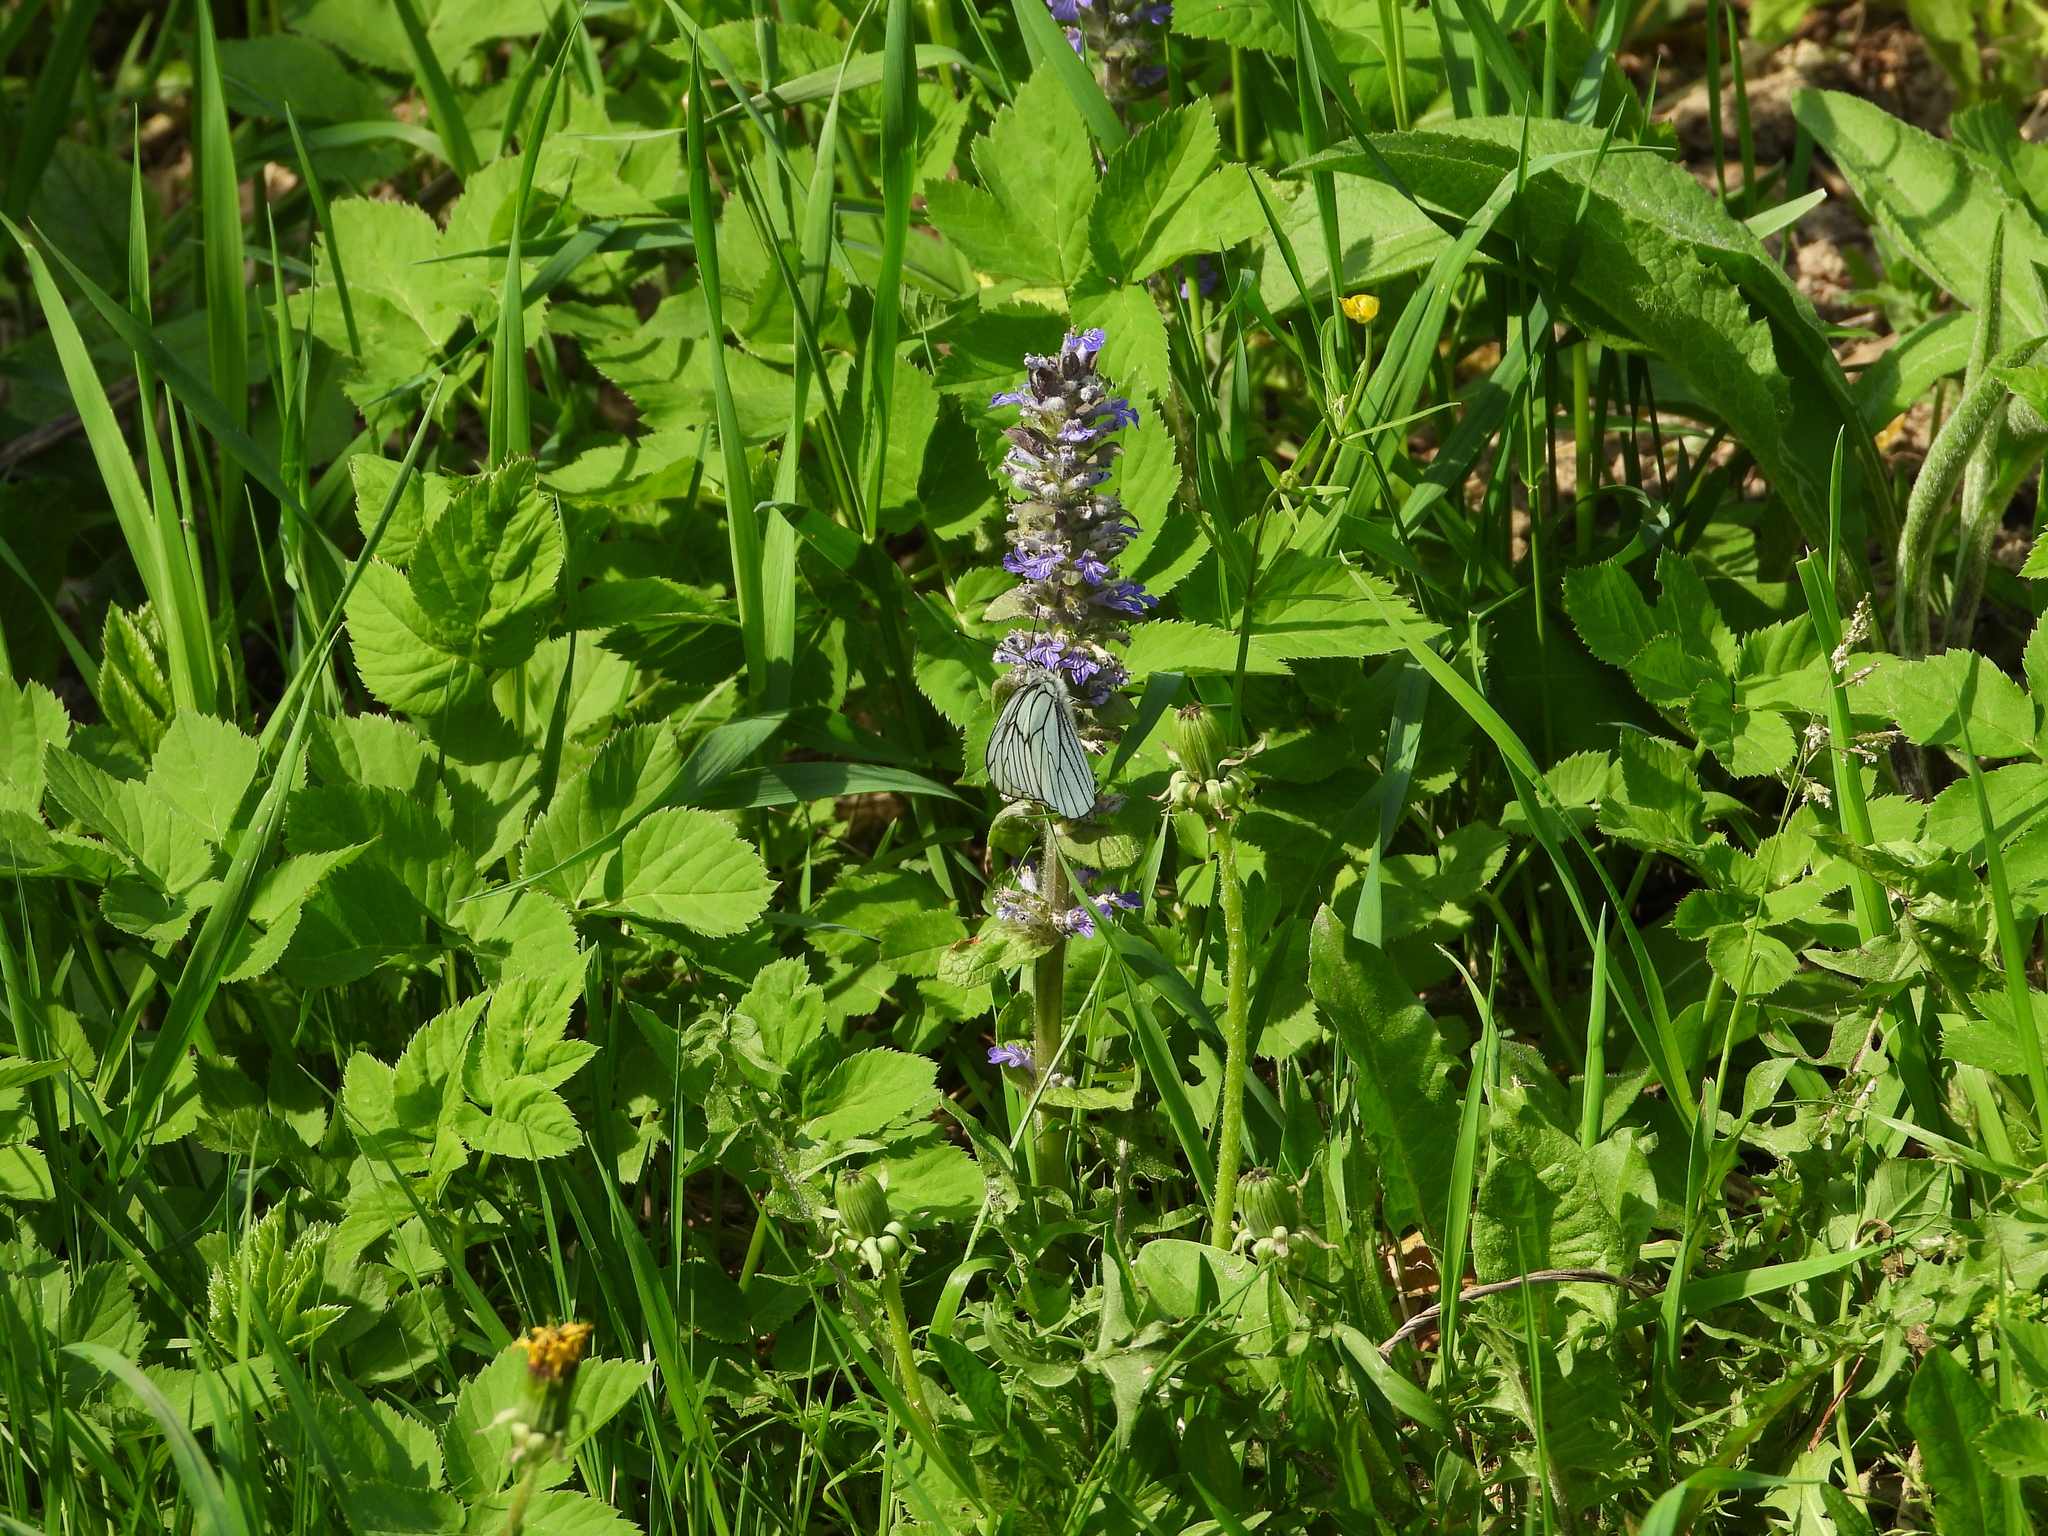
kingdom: Animalia
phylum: Arthropoda
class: Insecta
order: Lepidoptera
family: Pieridae
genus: Aporia
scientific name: Aporia crataegi
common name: Black-veined white
